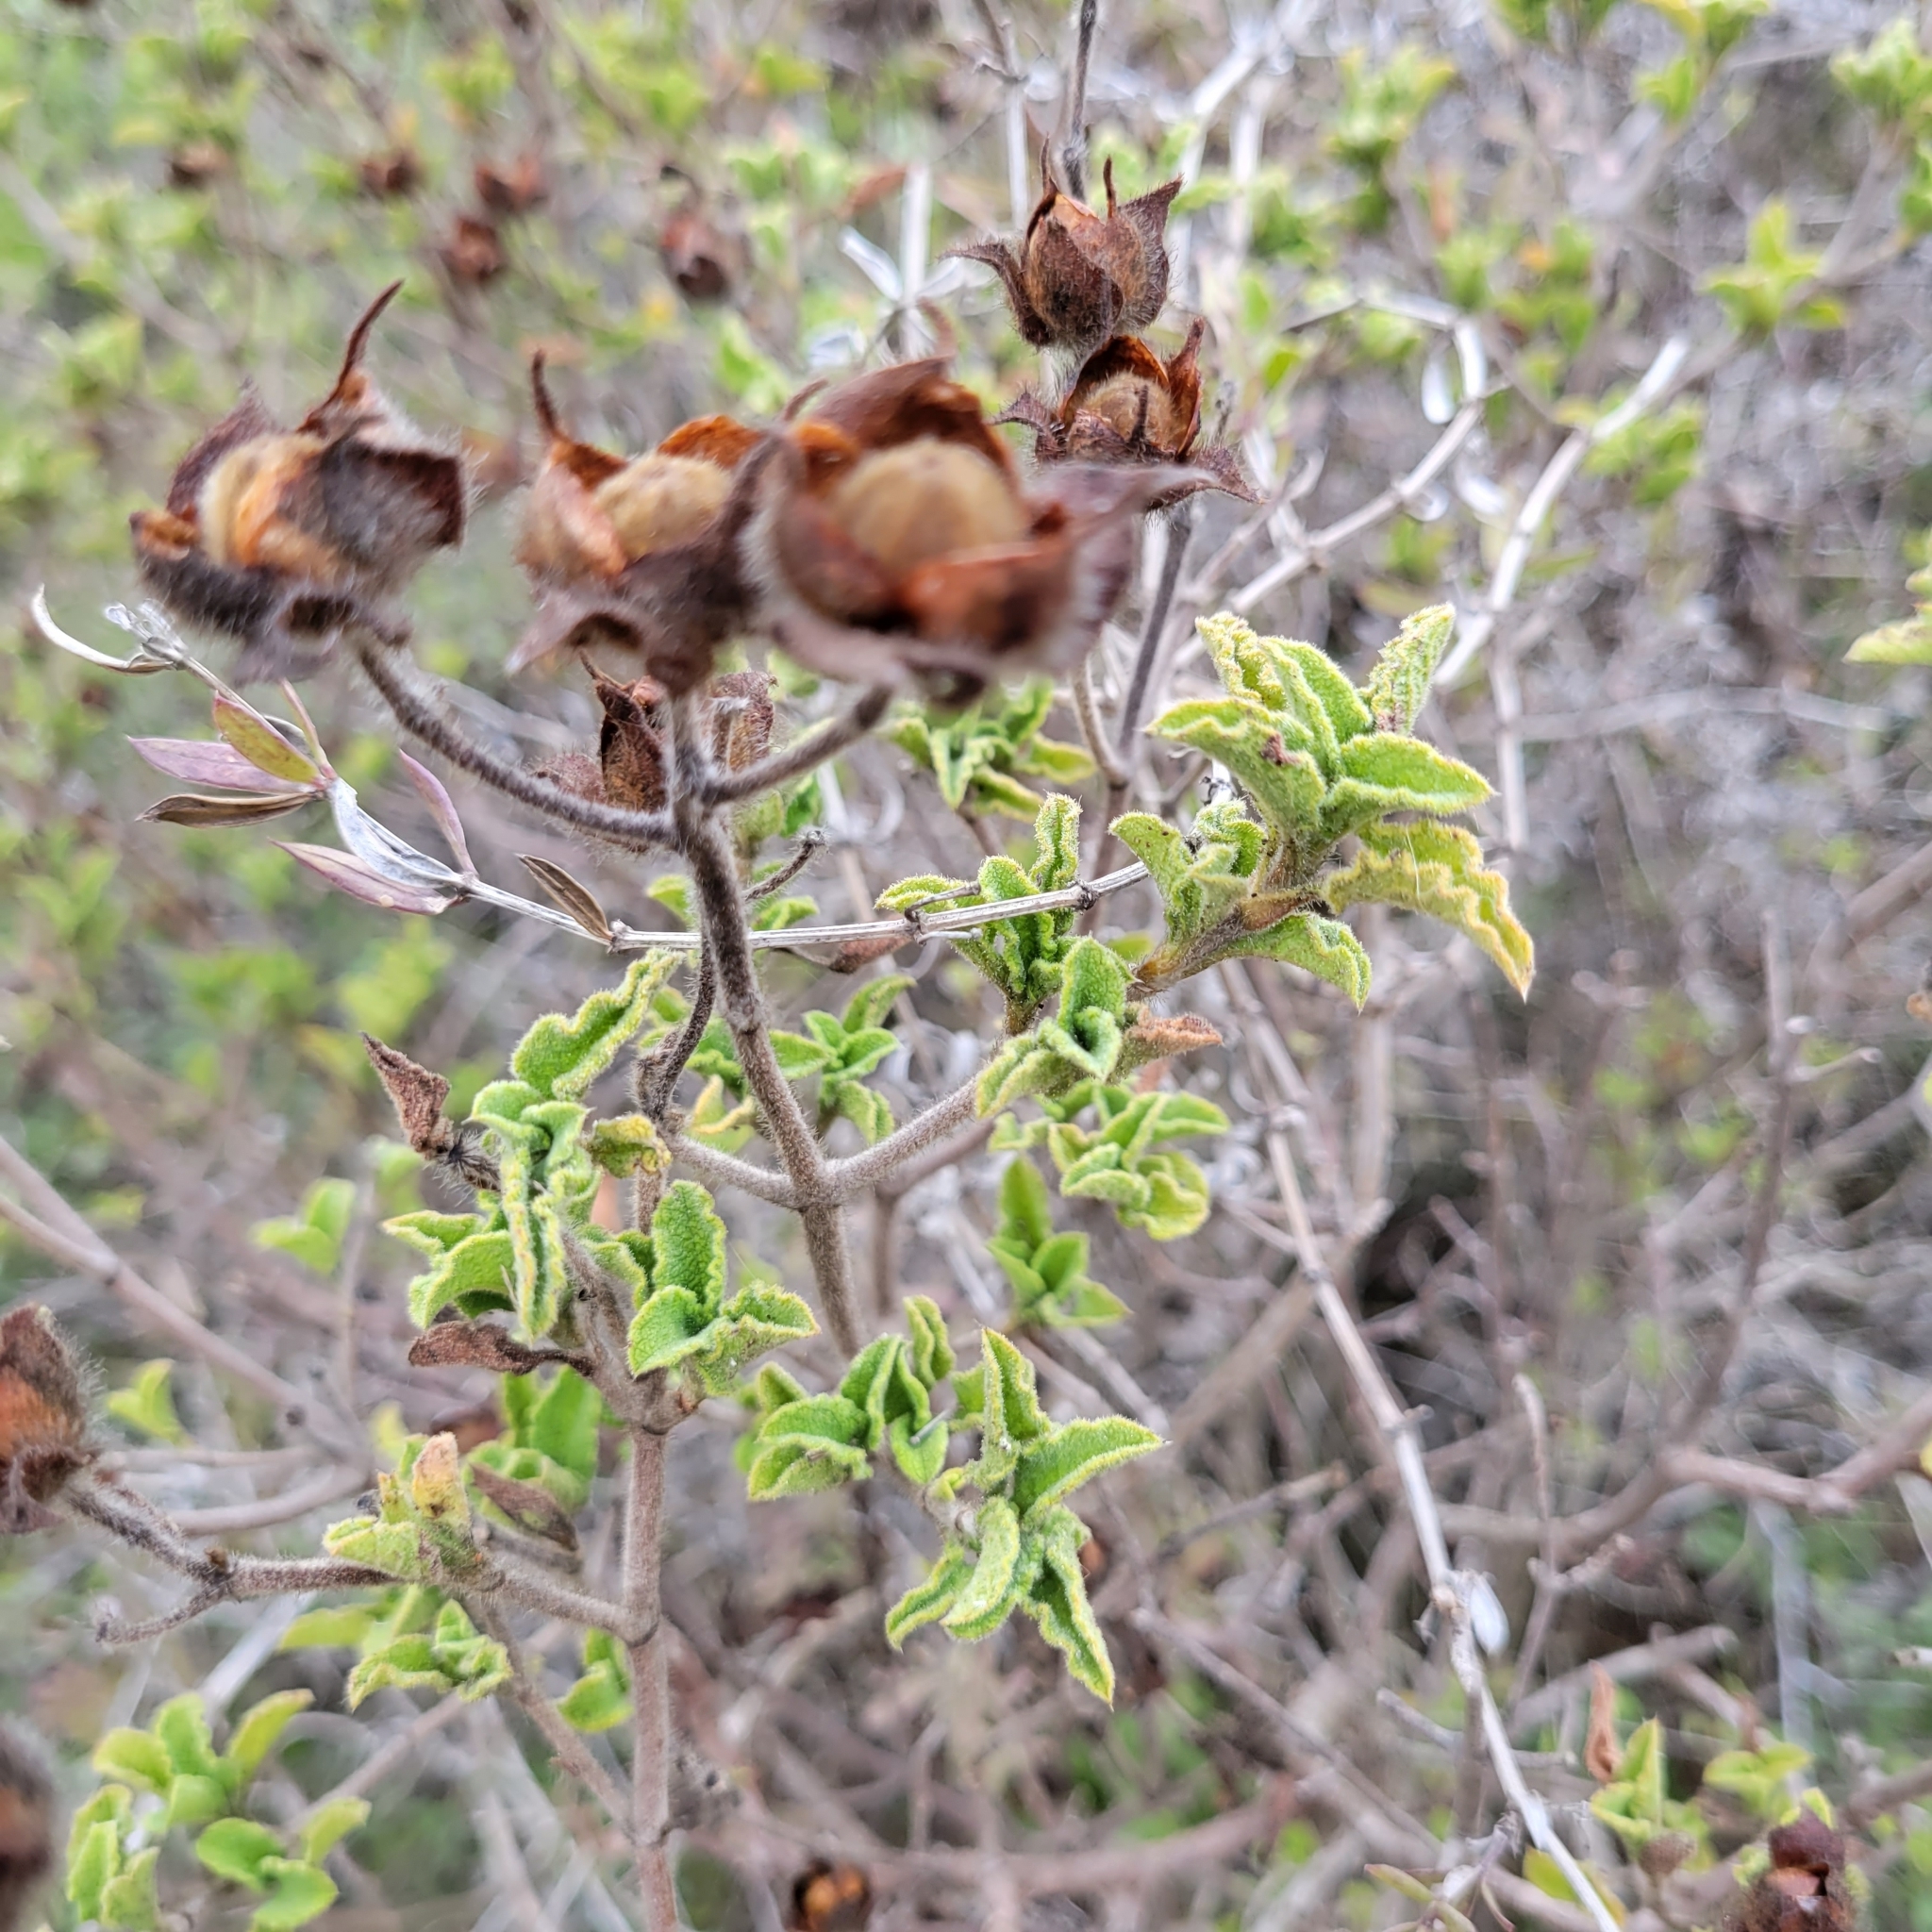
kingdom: Plantae
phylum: Tracheophyta
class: Magnoliopsida
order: Malvales
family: Cistaceae
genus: Cistus
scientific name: Cistus creticus
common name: Cretan rockrose
